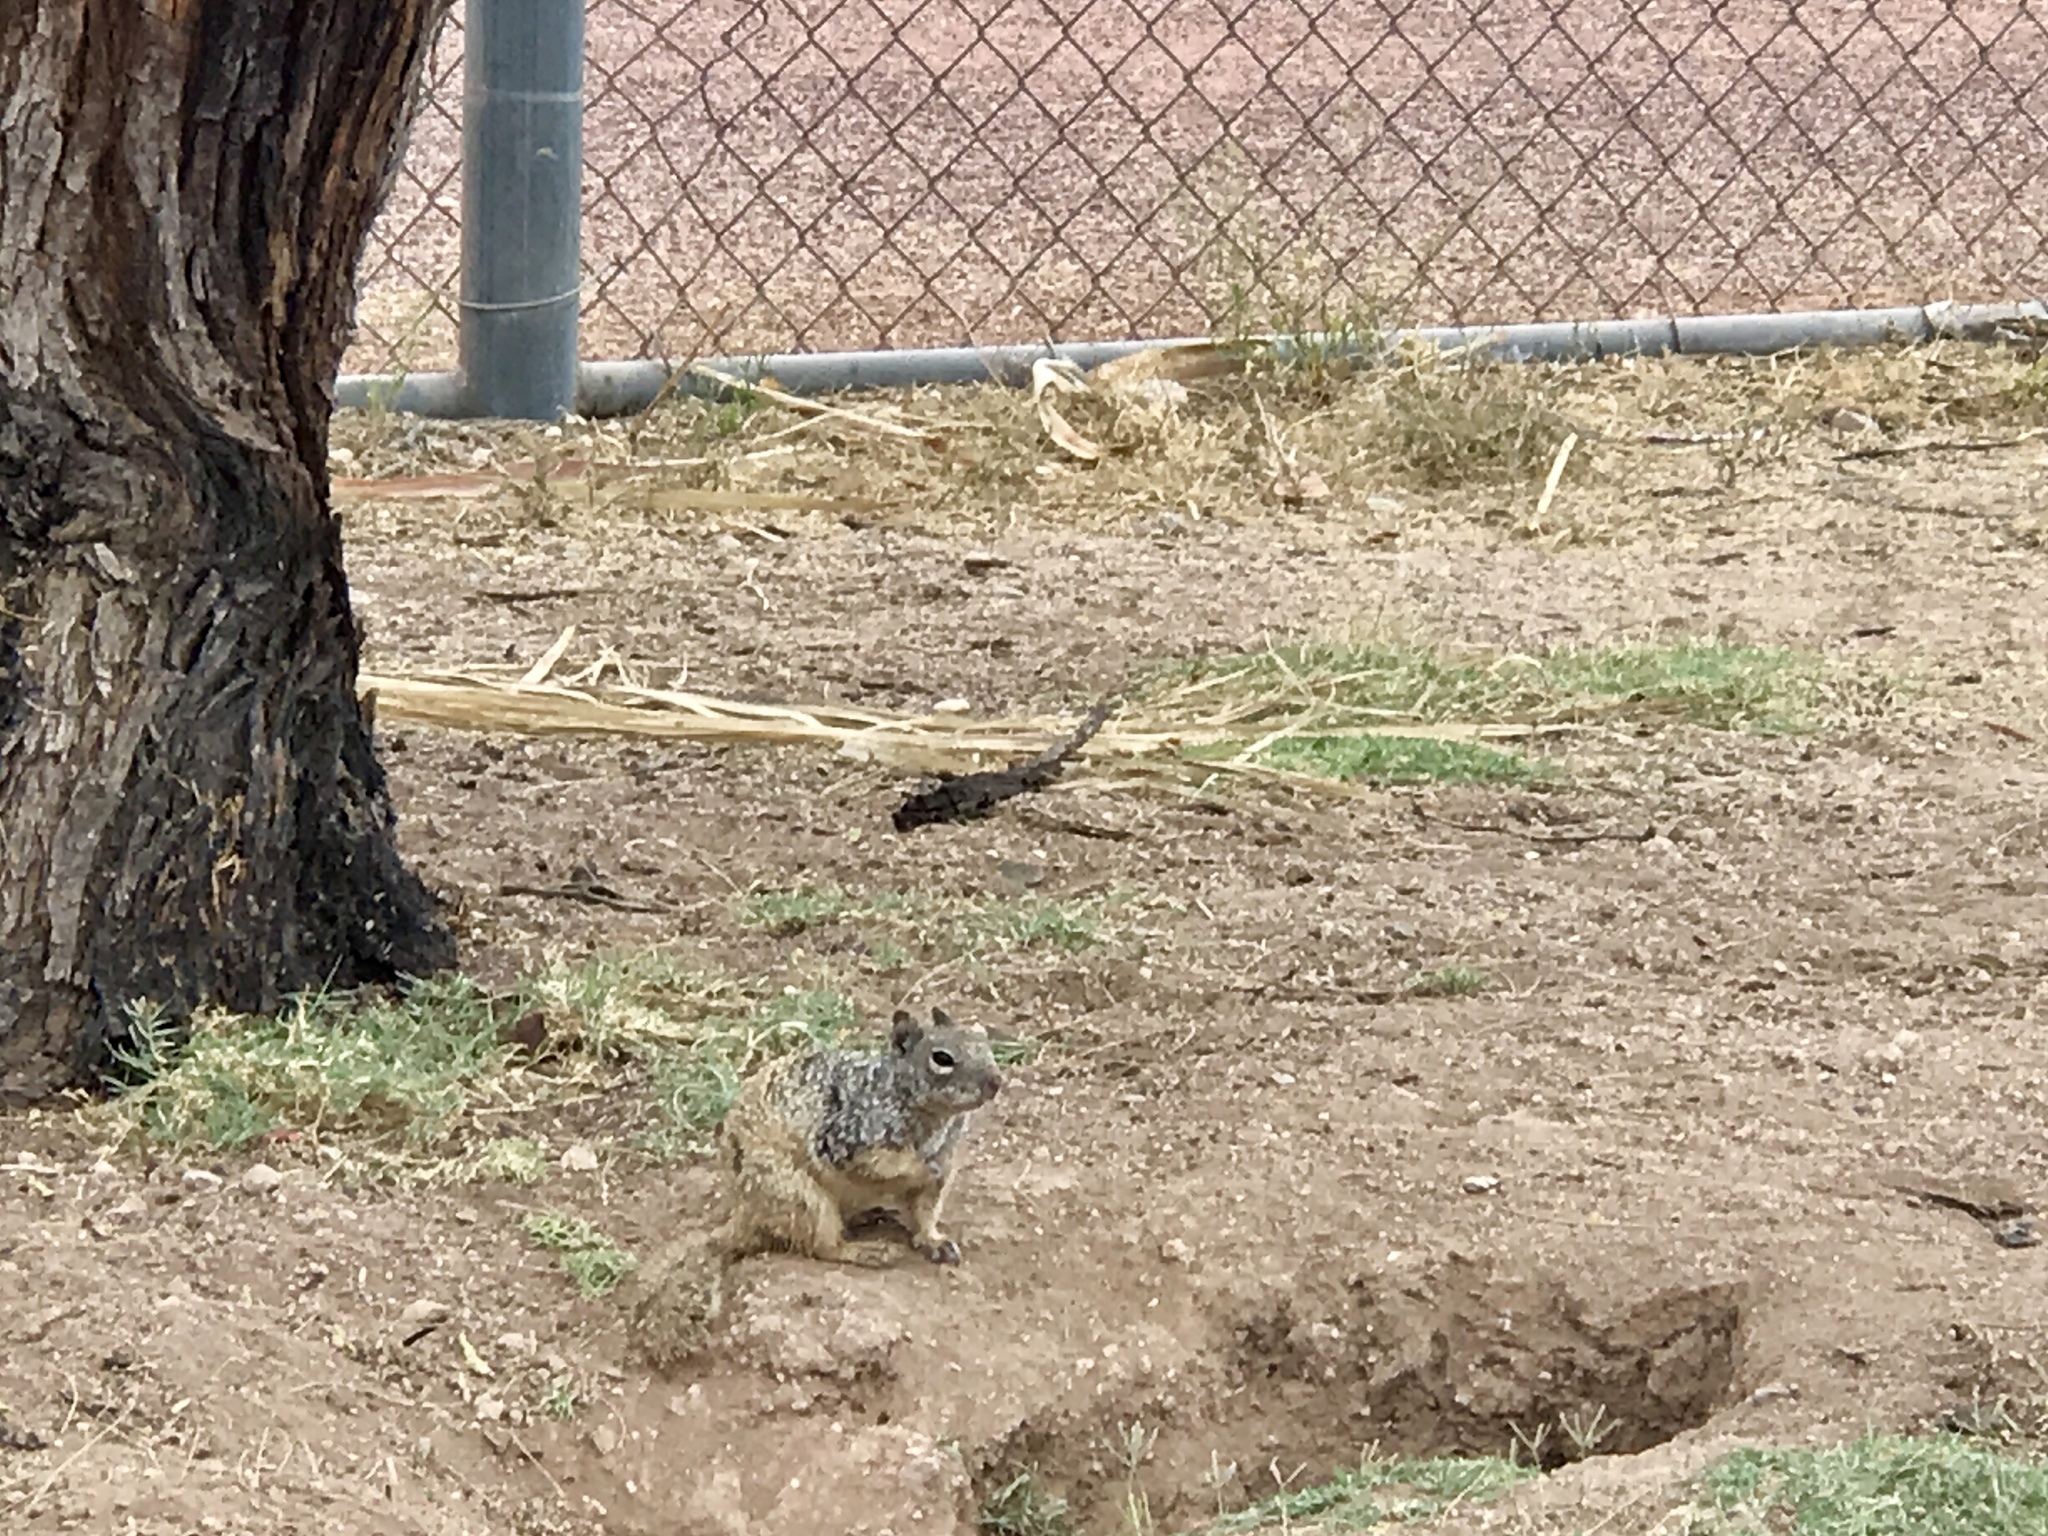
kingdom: Animalia
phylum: Chordata
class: Mammalia
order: Rodentia
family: Sciuridae
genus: Otospermophilus
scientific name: Otospermophilus variegatus
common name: Rock squirrel
